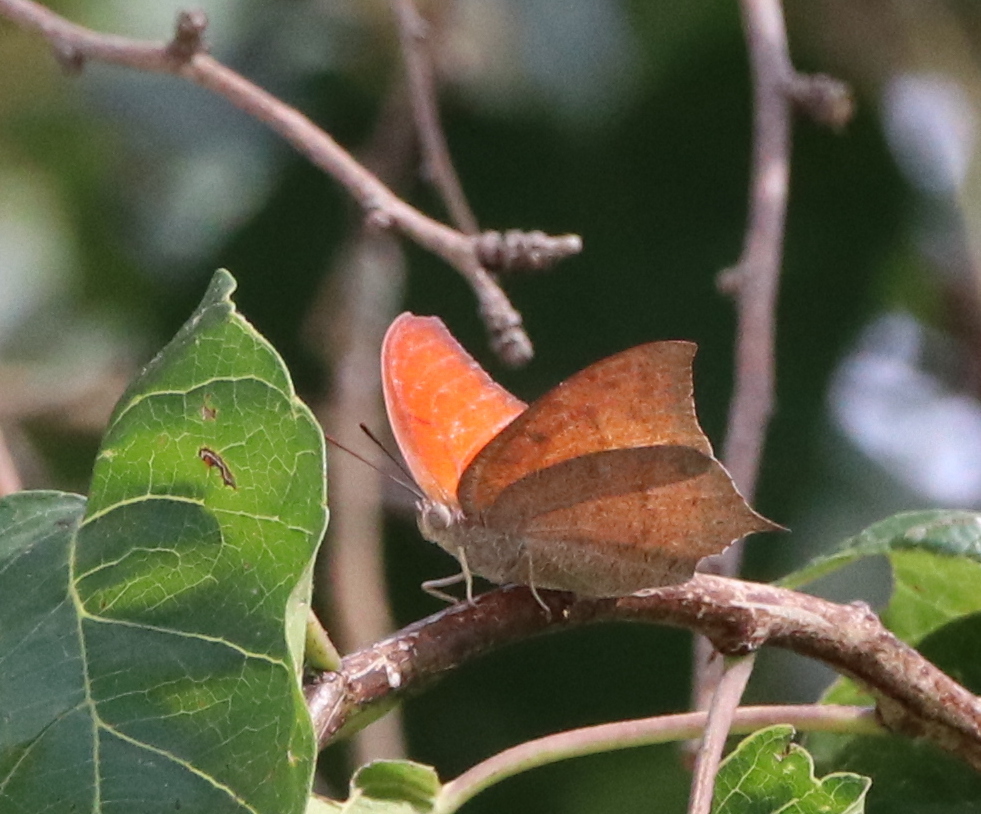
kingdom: Animalia
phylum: Arthropoda
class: Insecta
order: Lepidoptera
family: Nymphalidae
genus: Anaea
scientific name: Anaea andria
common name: Goatweed leafwing
